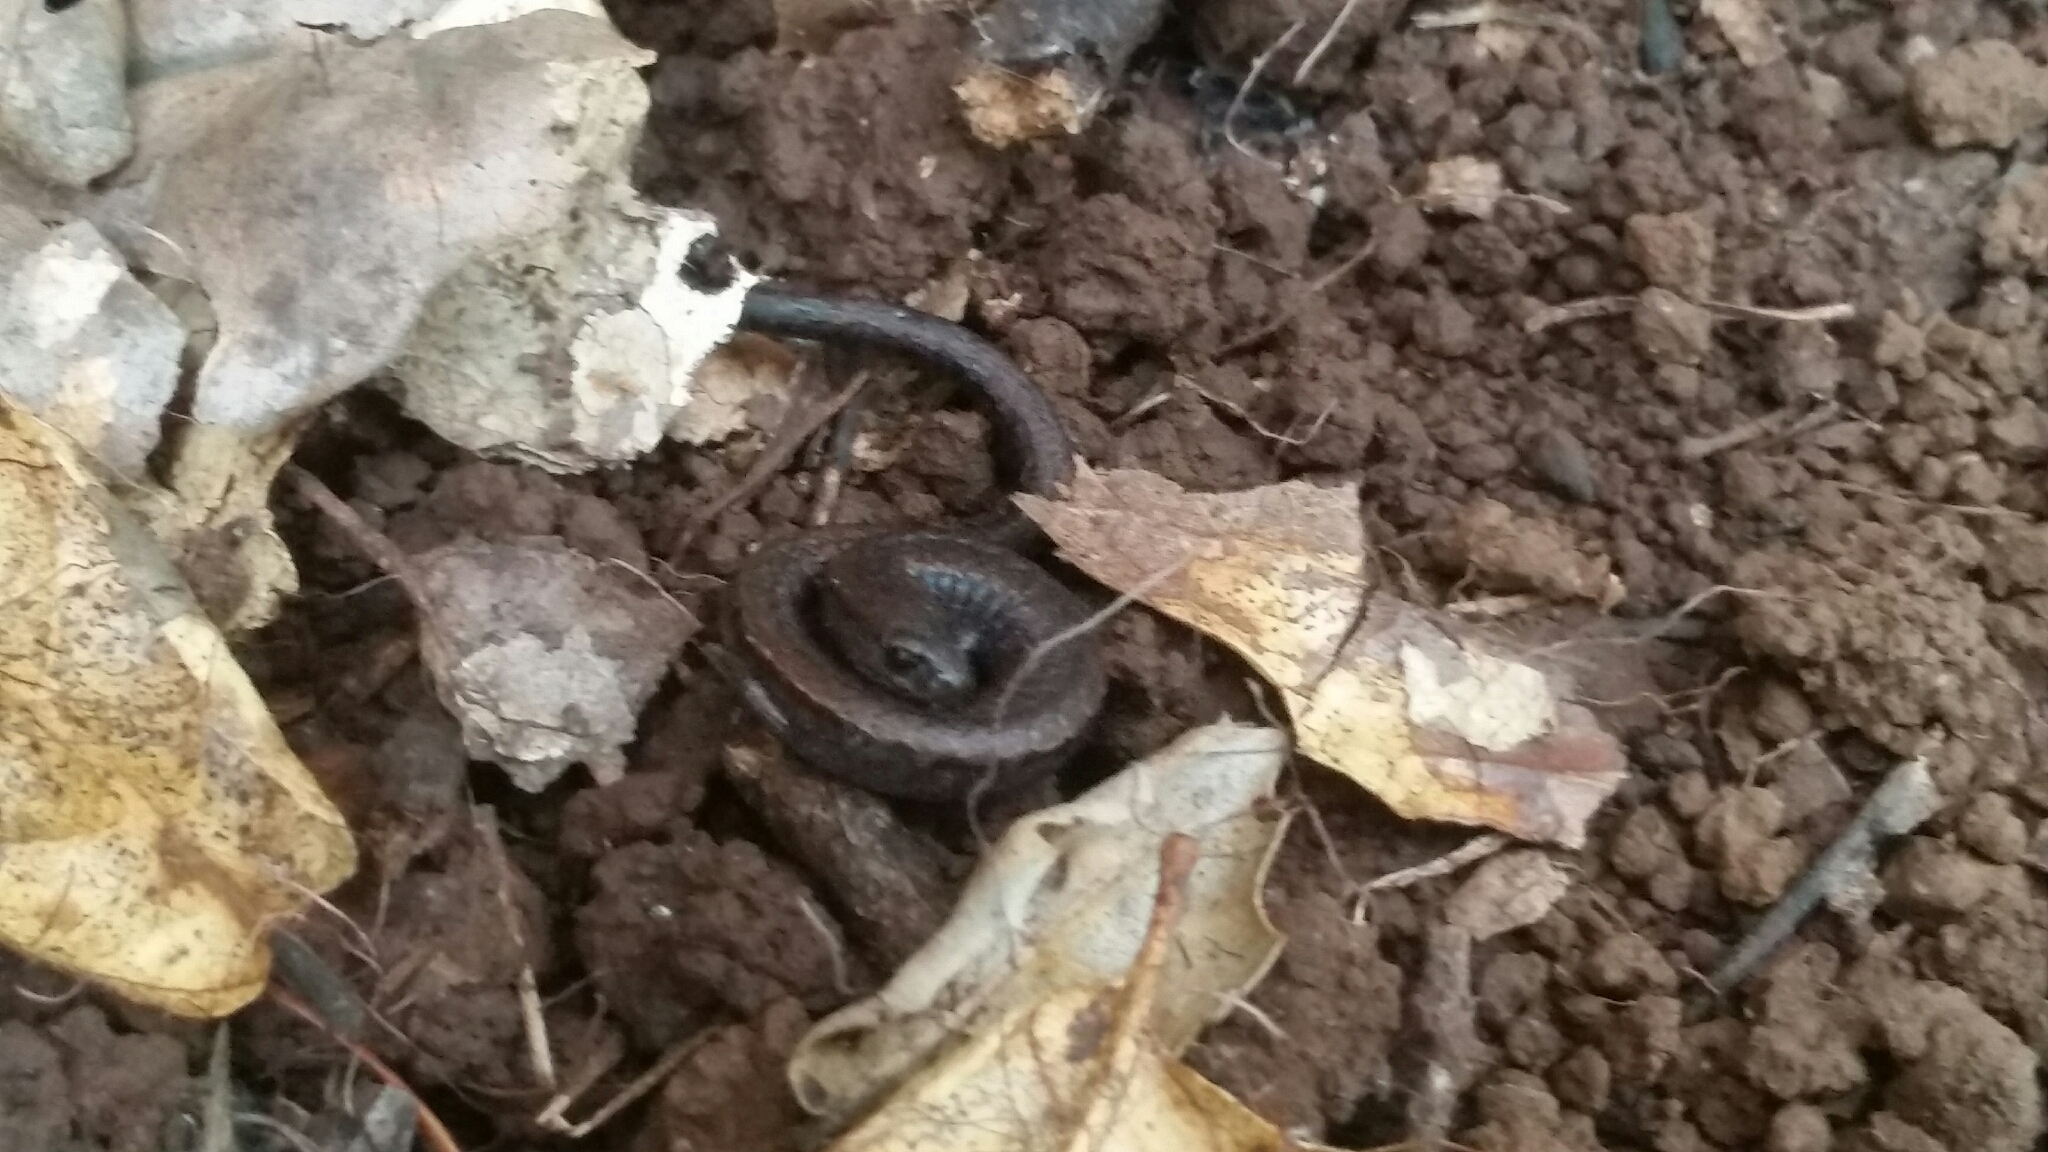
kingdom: Animalia
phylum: Chordata
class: Amphibia
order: Caudata
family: Plethodontidae
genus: Batrachoseps
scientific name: Batrachoseps attenuatus
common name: California slender salamander
